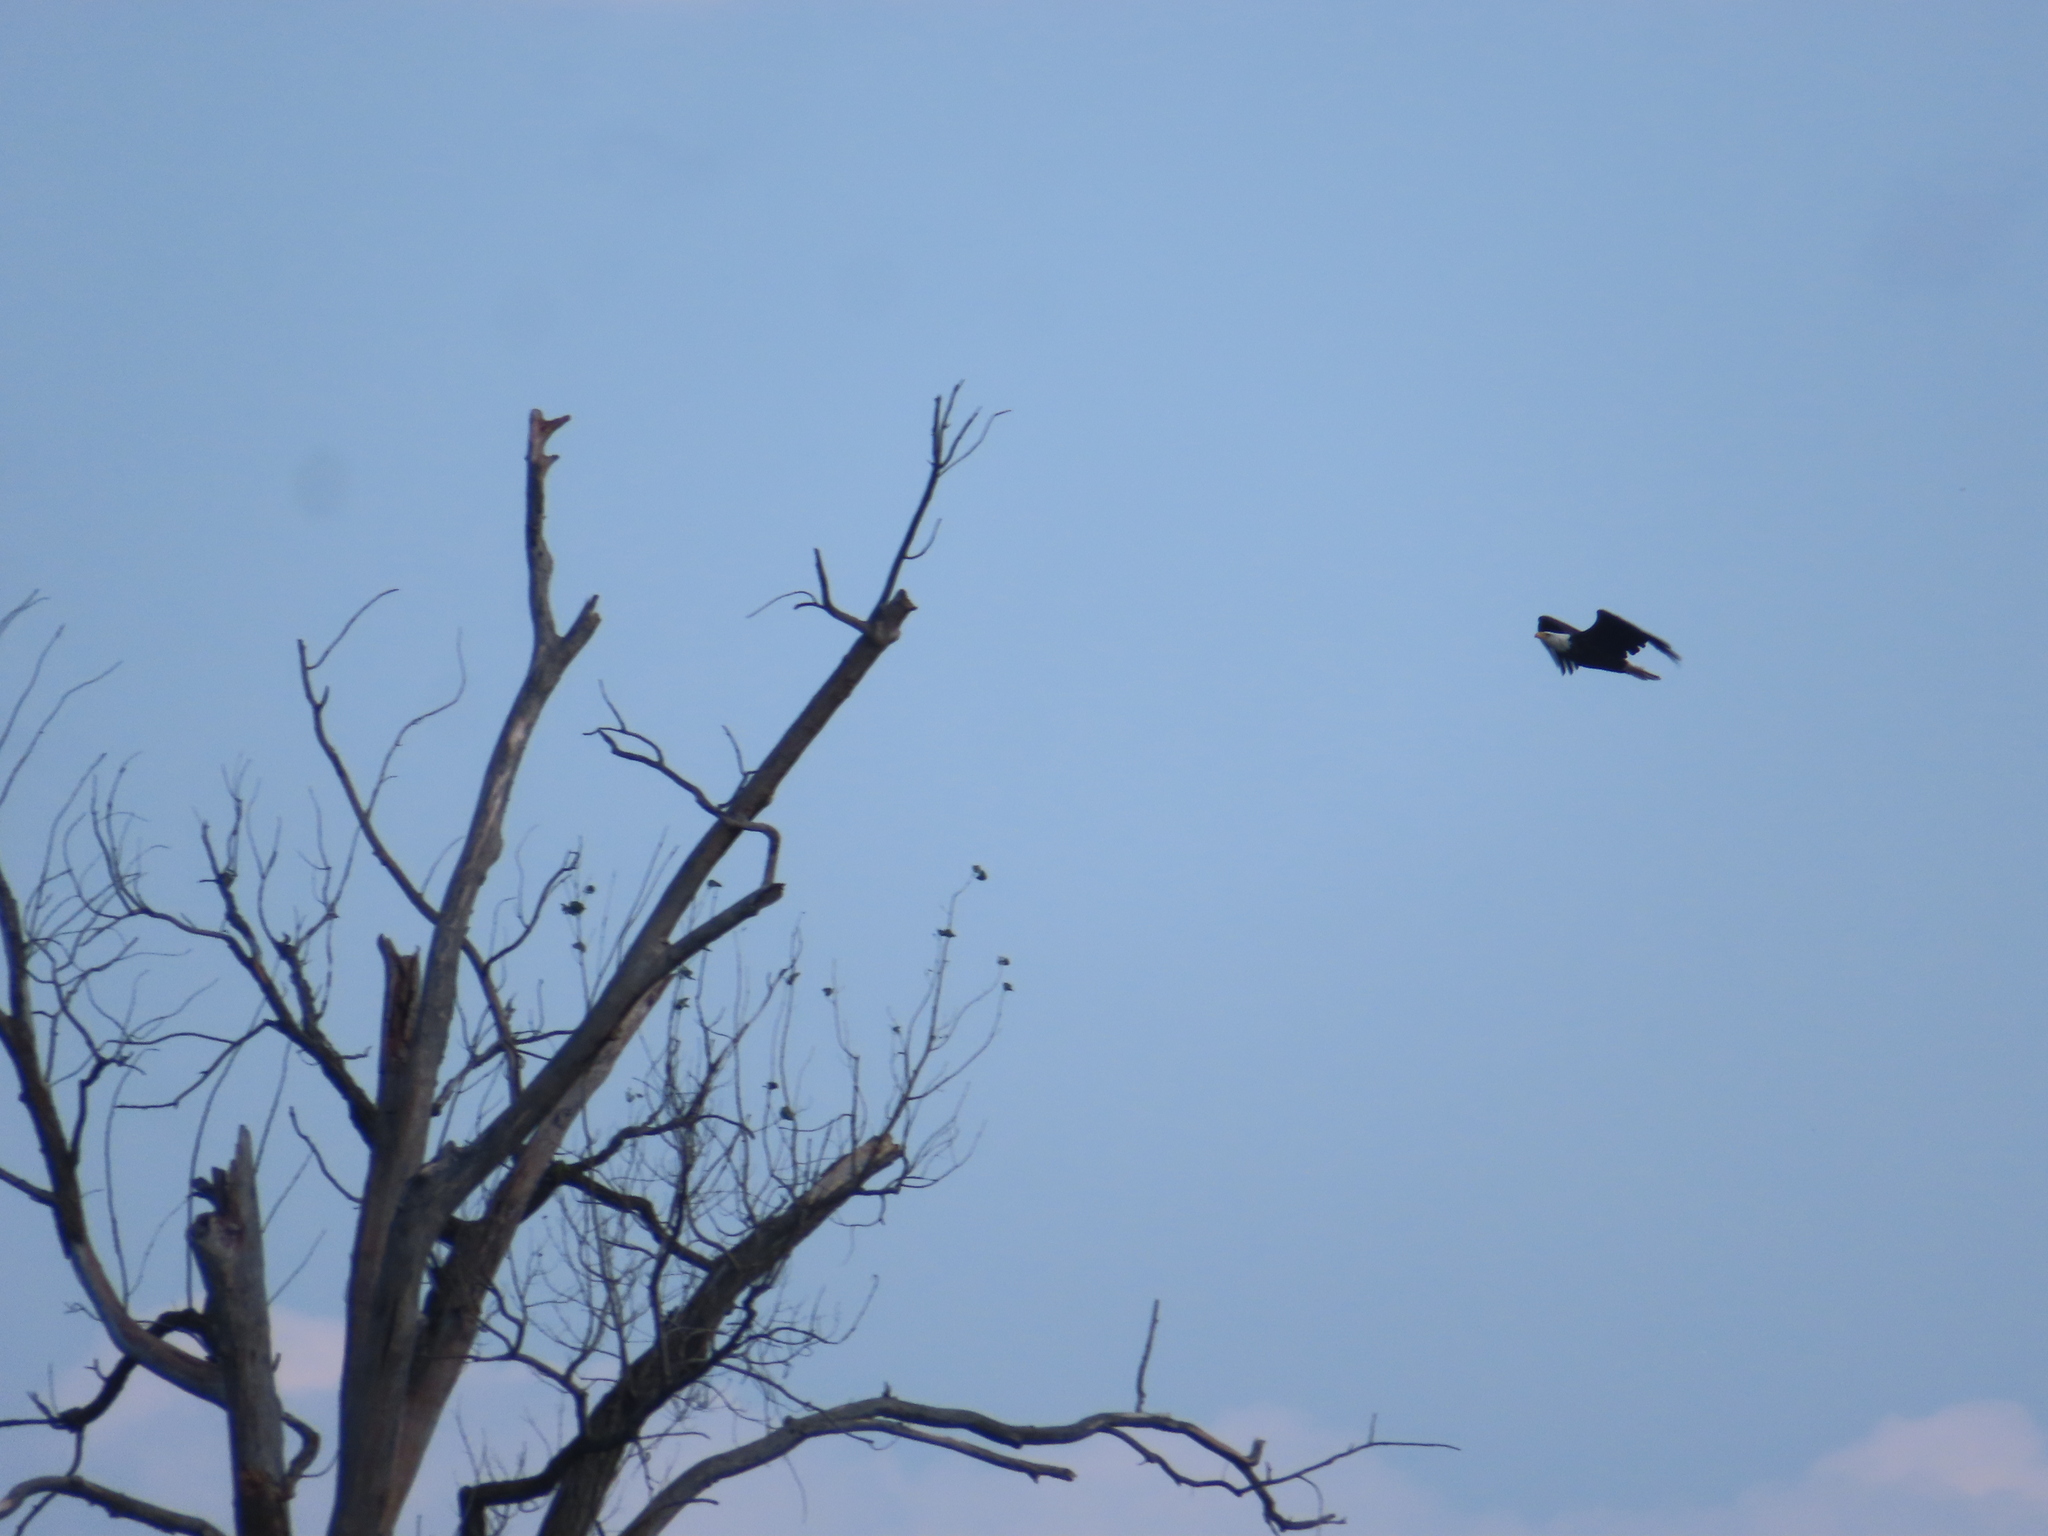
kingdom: Animalia
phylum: Chordata
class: Aves
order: Accipitriformes
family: Accipitridae
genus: Haliaeetus
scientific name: Haliaeetus leucocephalus
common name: Bald eagle
